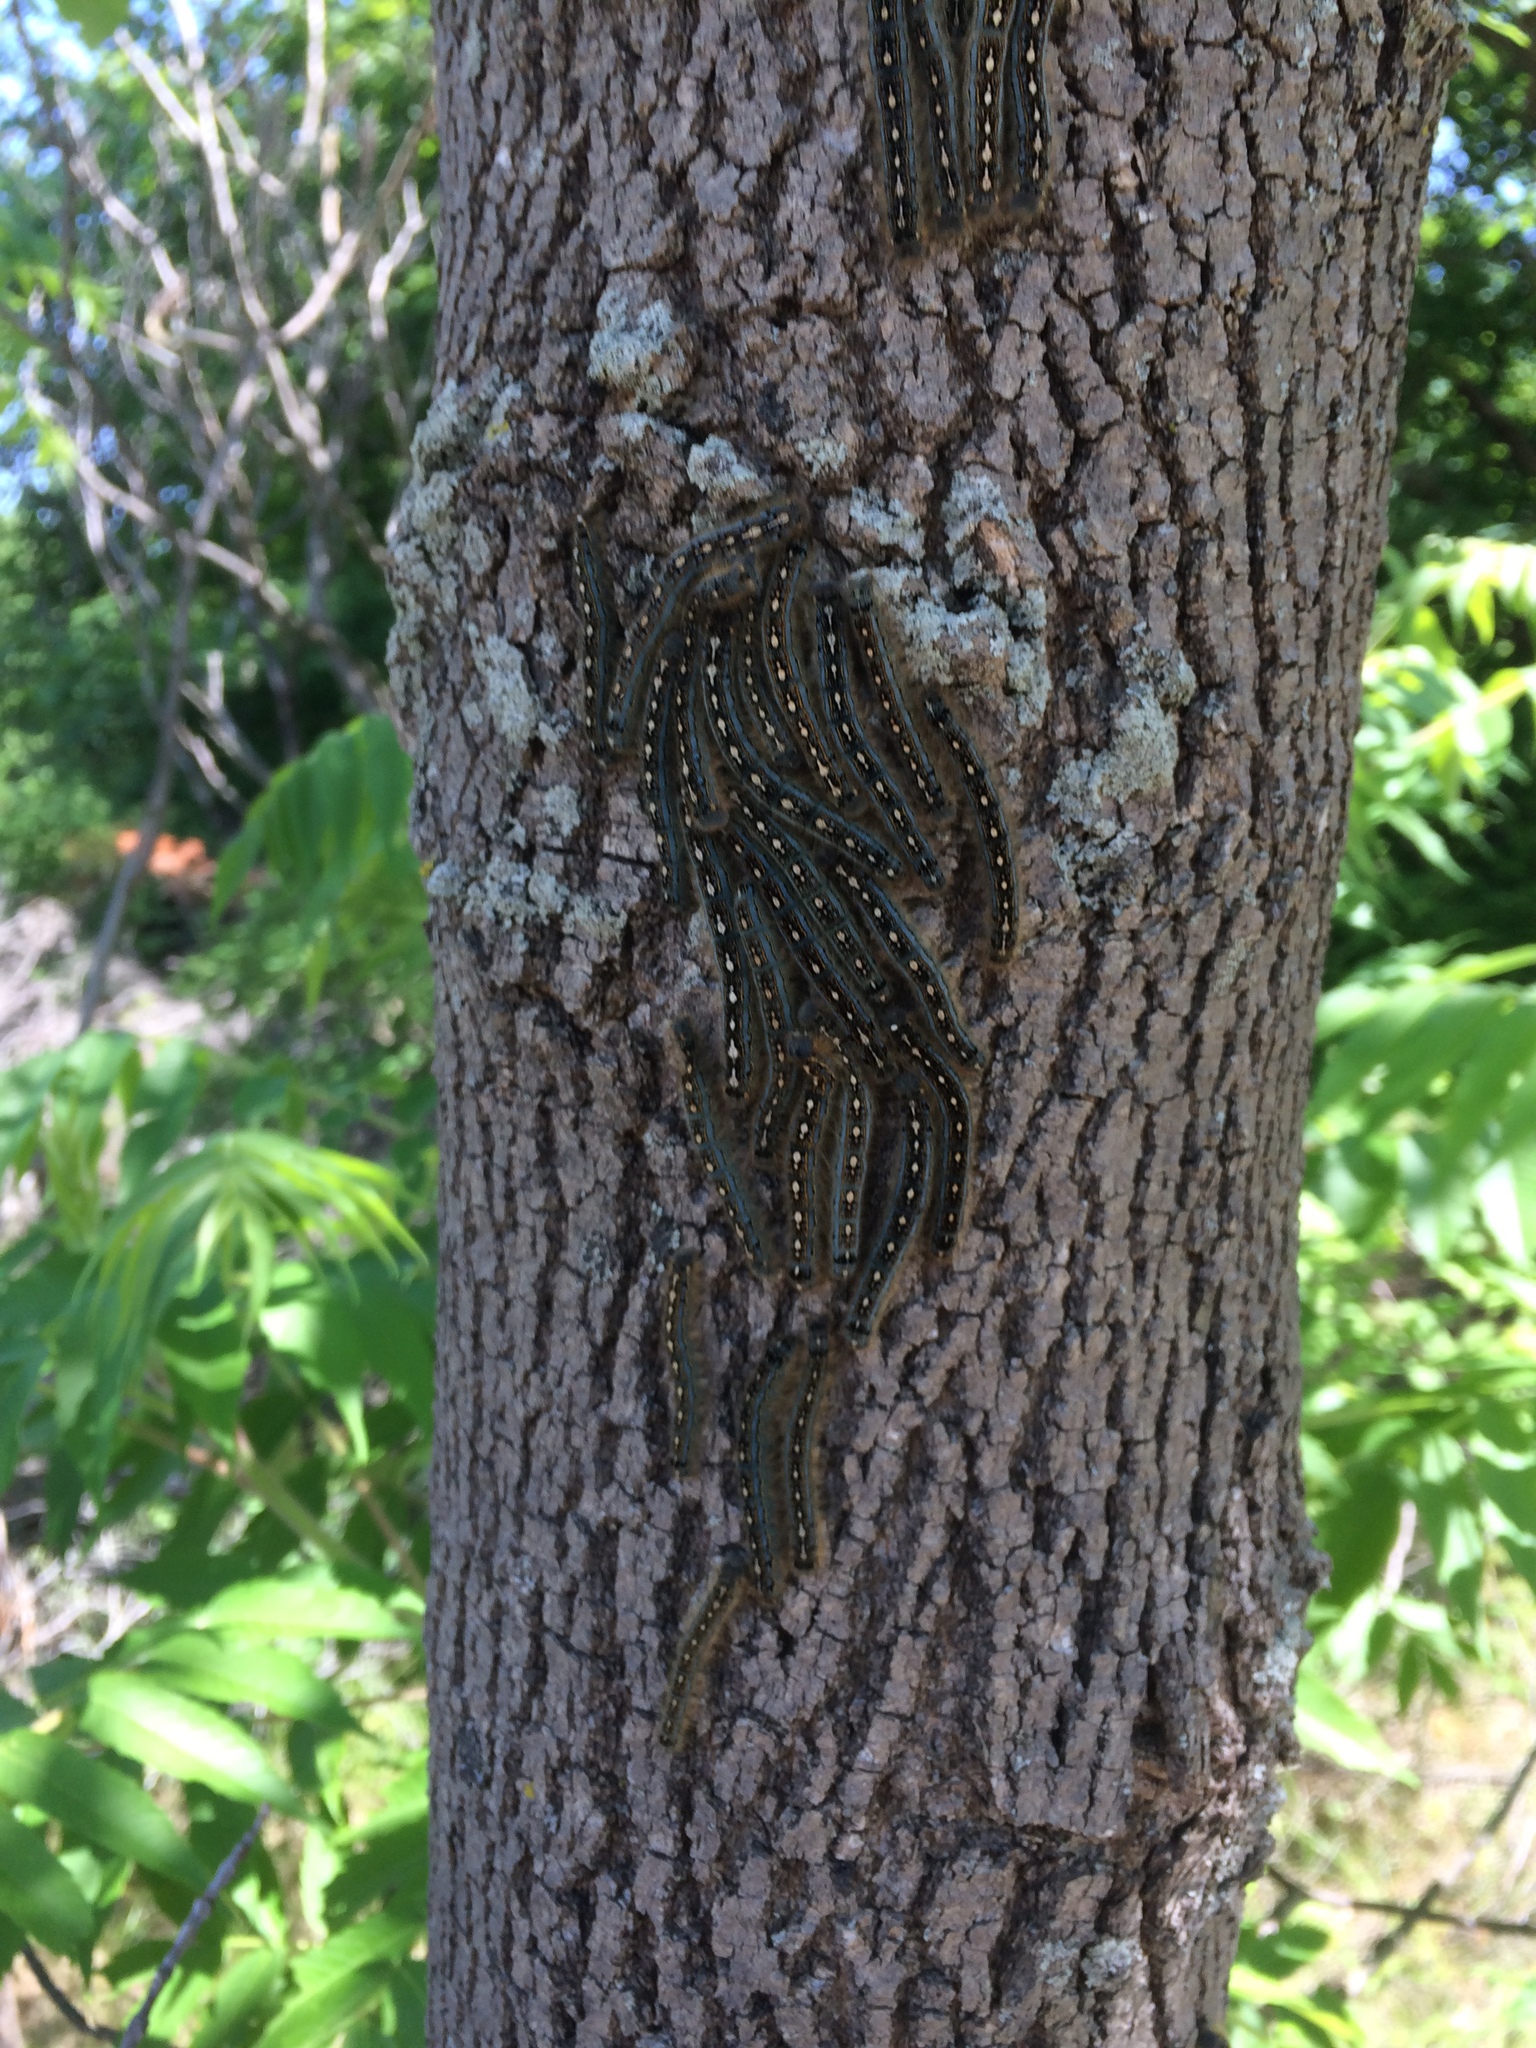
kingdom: Animalia
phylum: Arthropoda
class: Insecta
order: Lepidoptera
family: Lasiocampidae
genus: Malacosoma
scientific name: Malacosoma disstria
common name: Forest tent caterpillar
